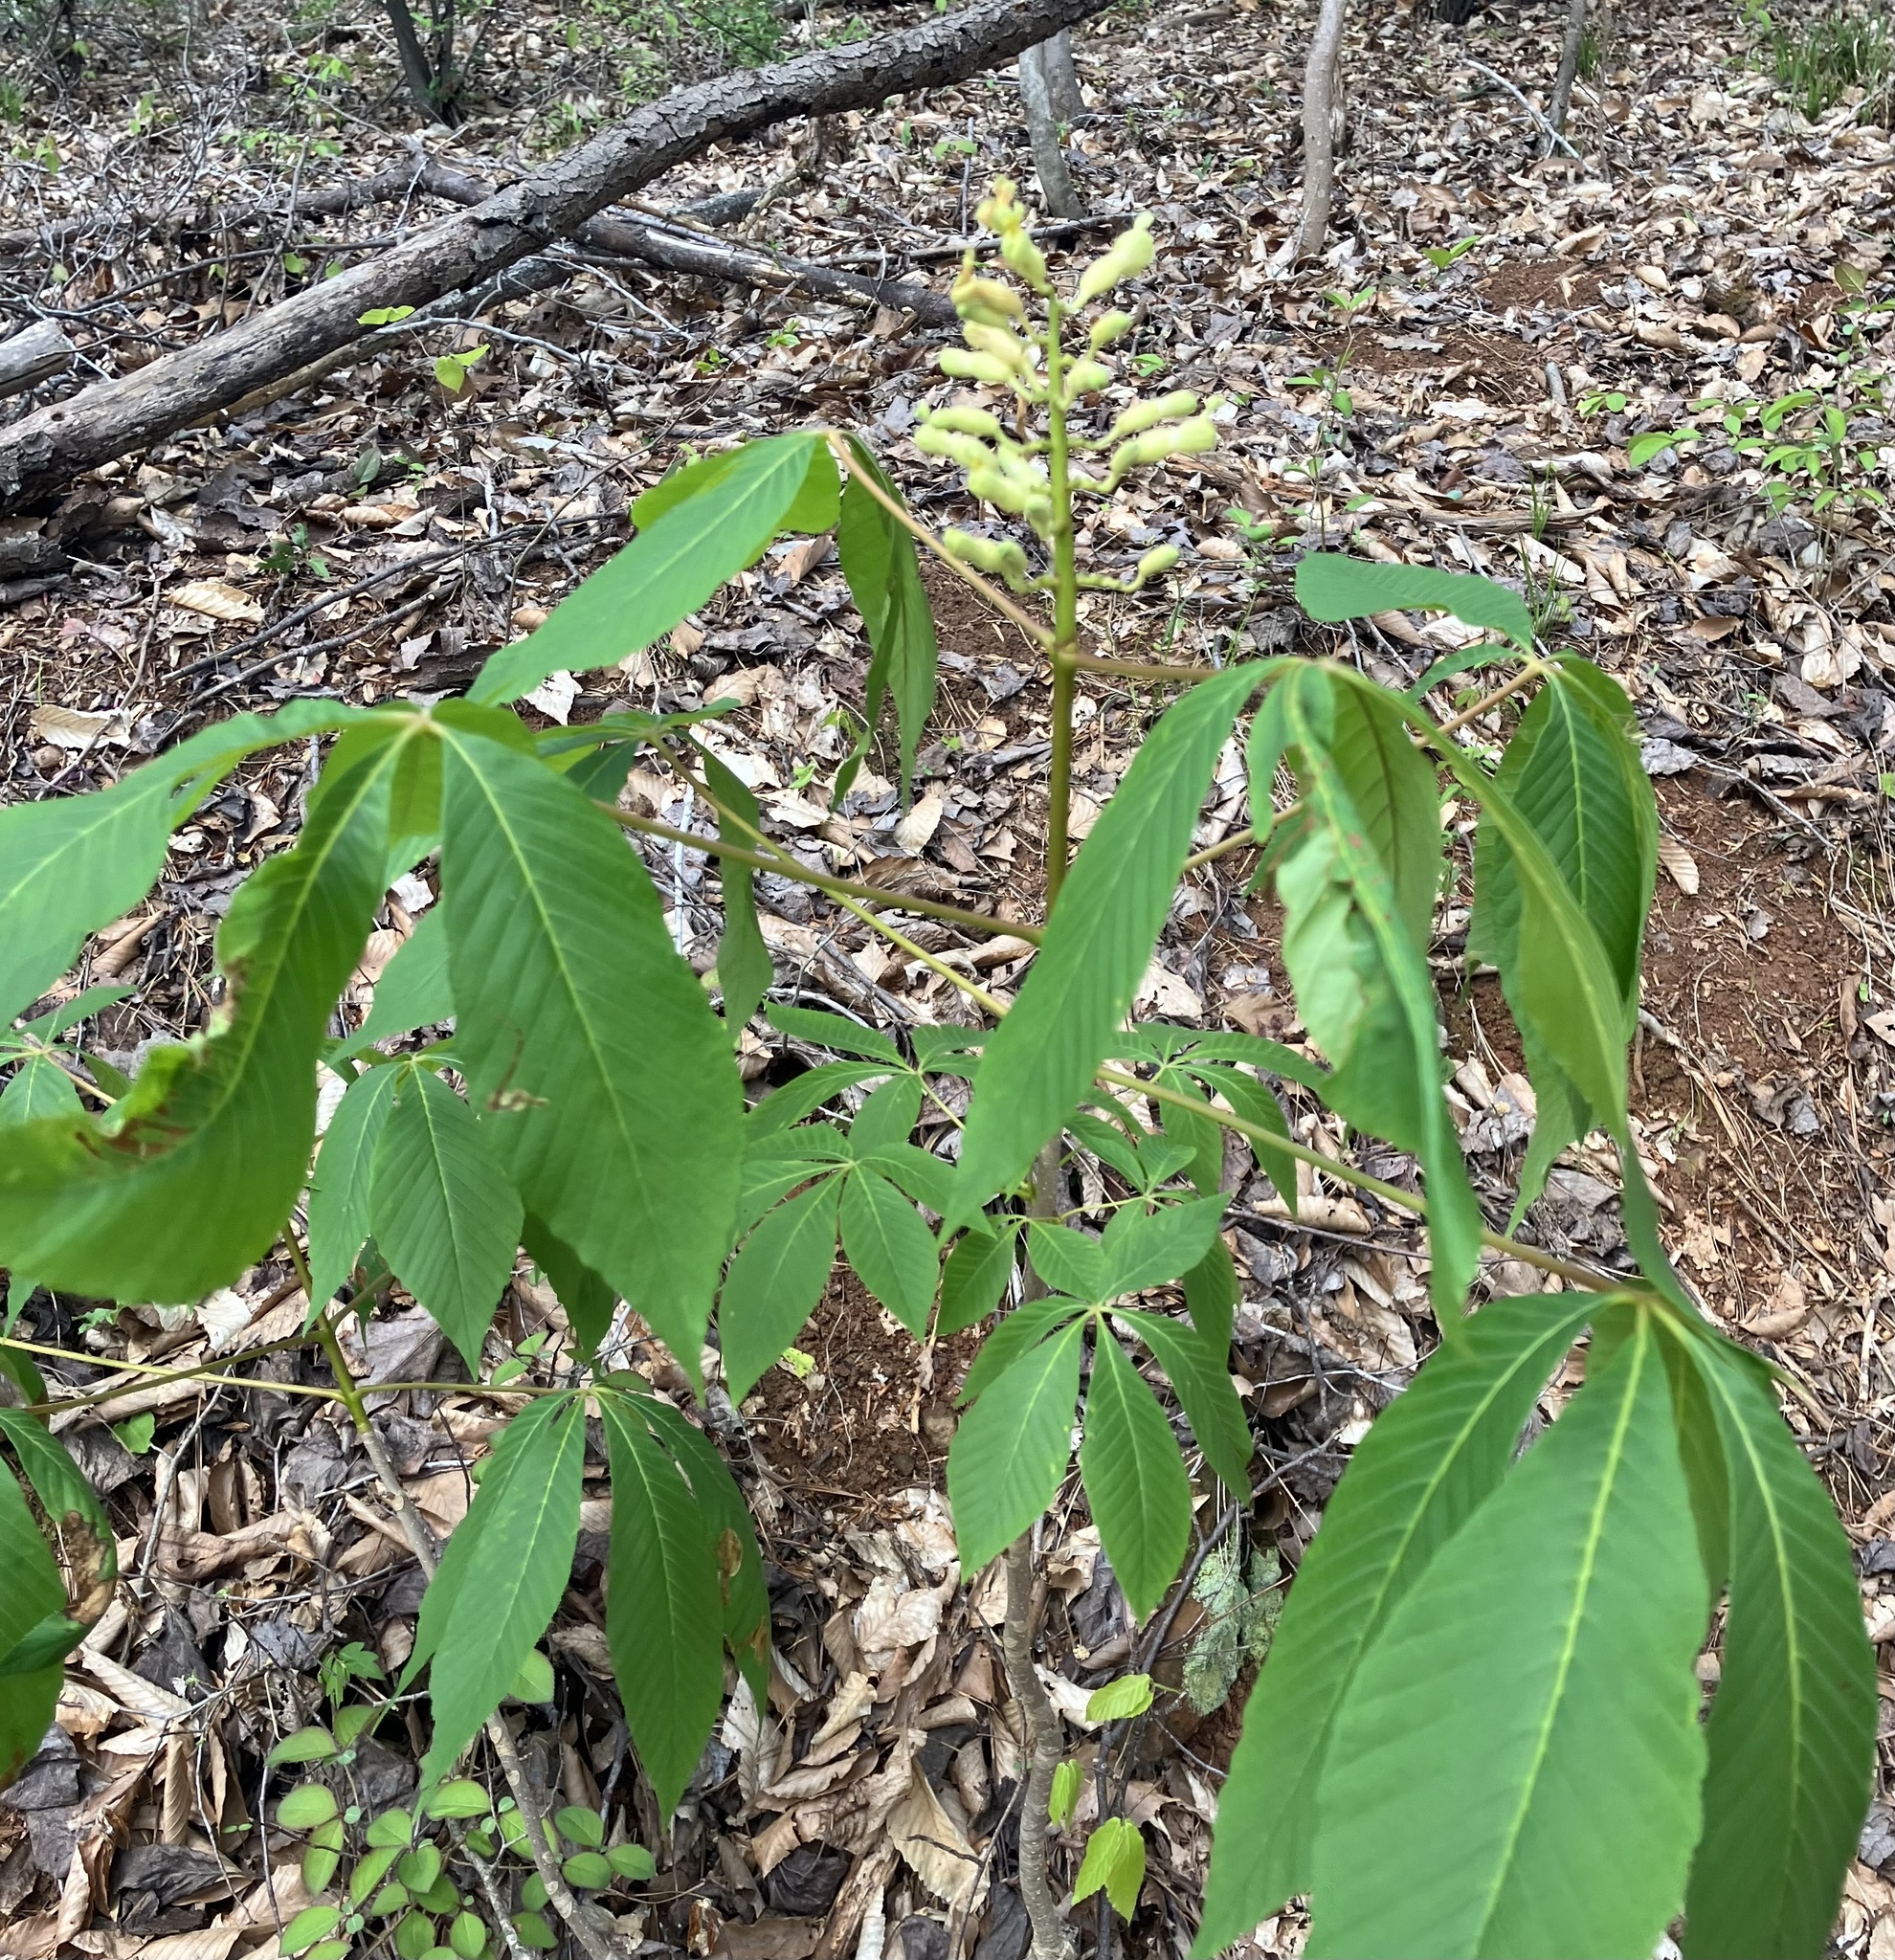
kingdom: Plantae
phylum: Tracheophyta
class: Magnoliopsida
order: Sapindales
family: Sapindaceae
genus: Aesculus
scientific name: Aesculus sylvatica
